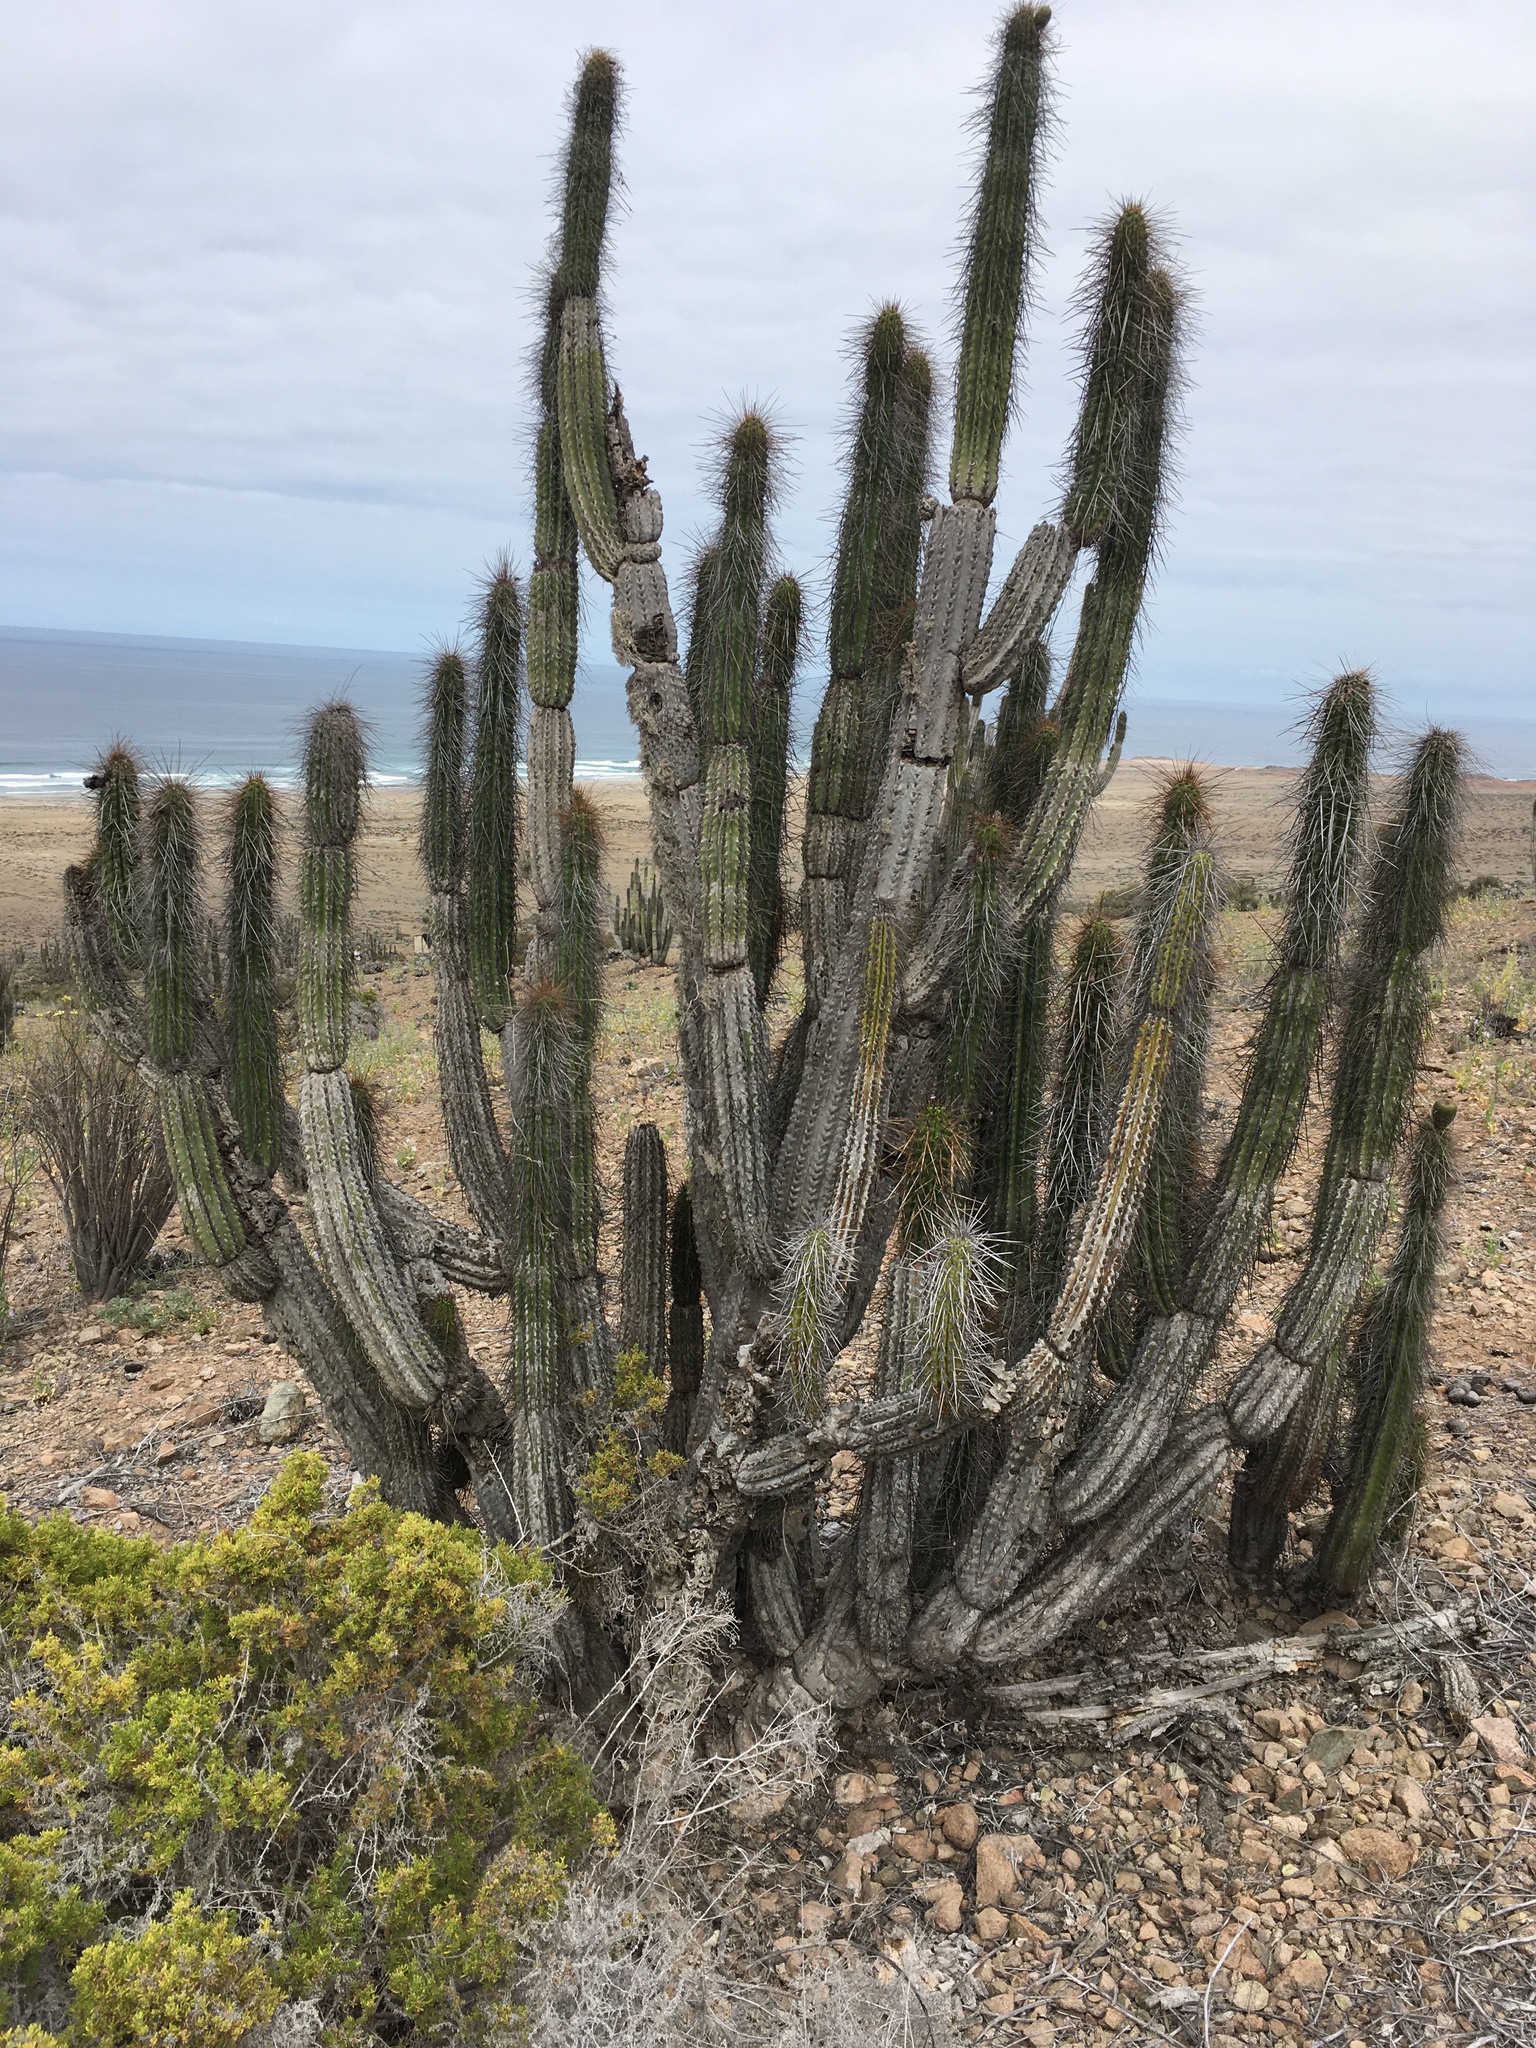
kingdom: Plantae
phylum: Tracheophyta
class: Magnoliopsida
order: Caryophyllales
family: Cactaceae
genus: Eulychnia
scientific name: Eulychnia iquiquensis
